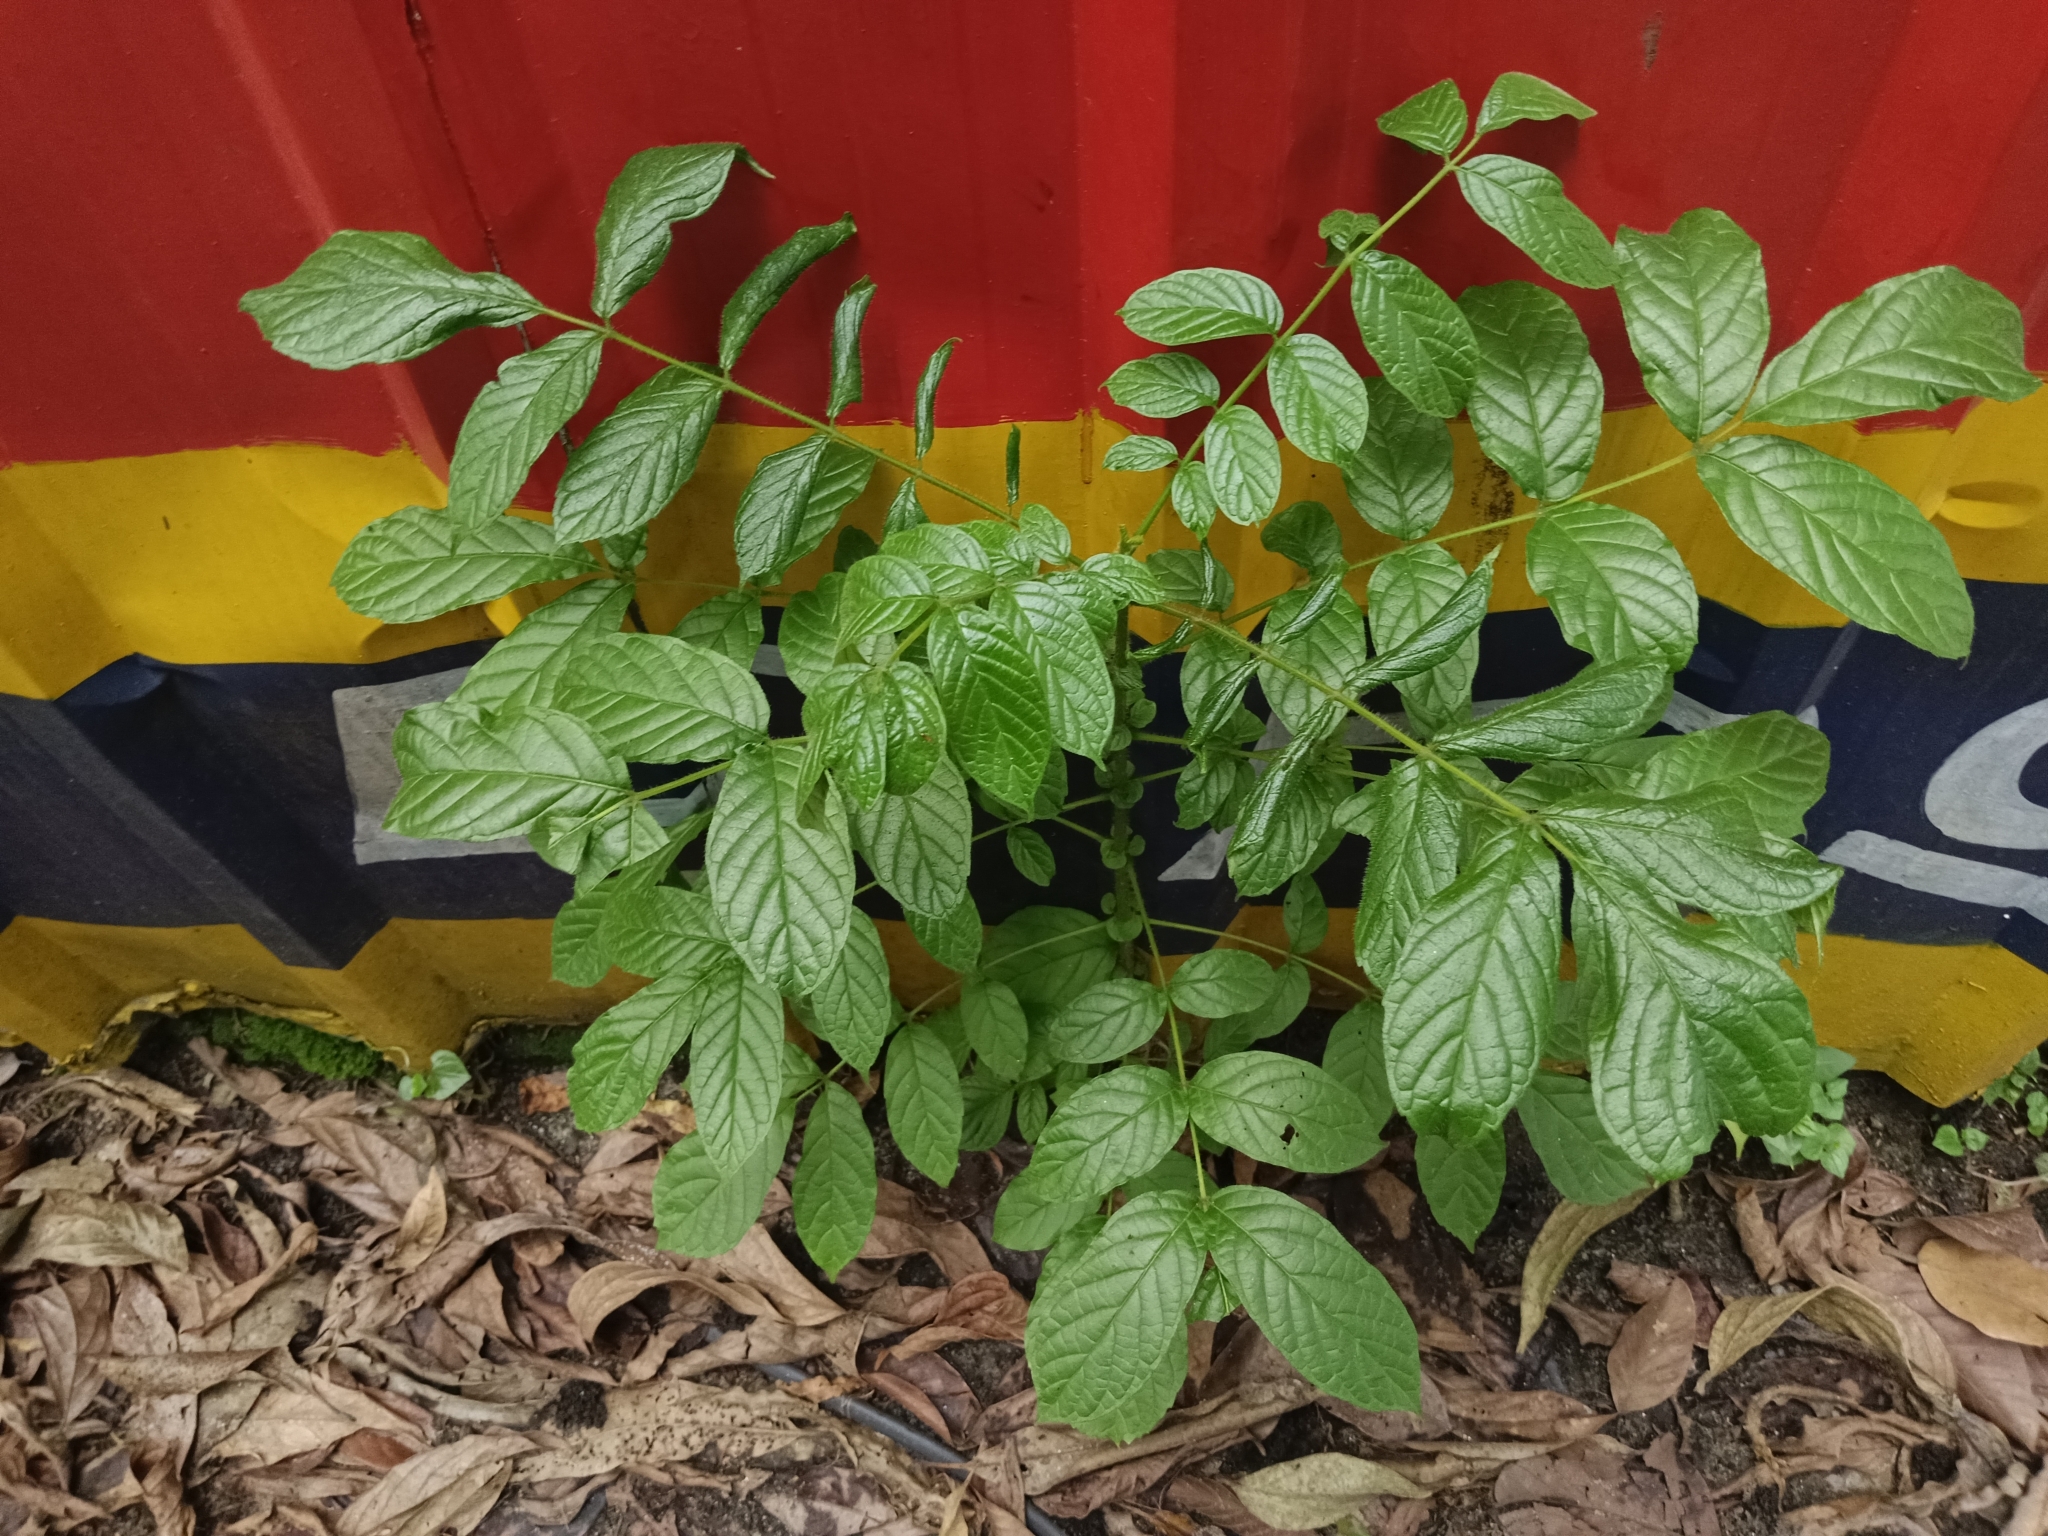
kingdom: Plantae
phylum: Tracheophyta
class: Magnoliopsida
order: Lamiales
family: Bignoniaceae
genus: Spathodea
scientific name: Spathodea campanulata
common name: African tuliptree
